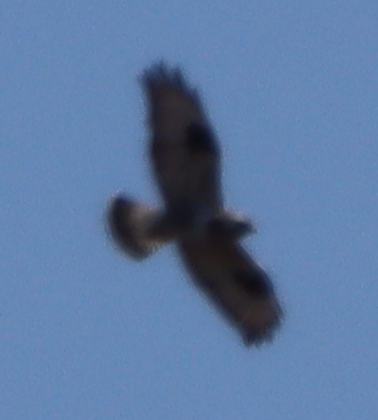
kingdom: Animalia
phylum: Chordata
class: Aves
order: Accipitriformes
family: Accipitridae
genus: Buteo
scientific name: Buteo lagopus
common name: Rough-legged buzzard
